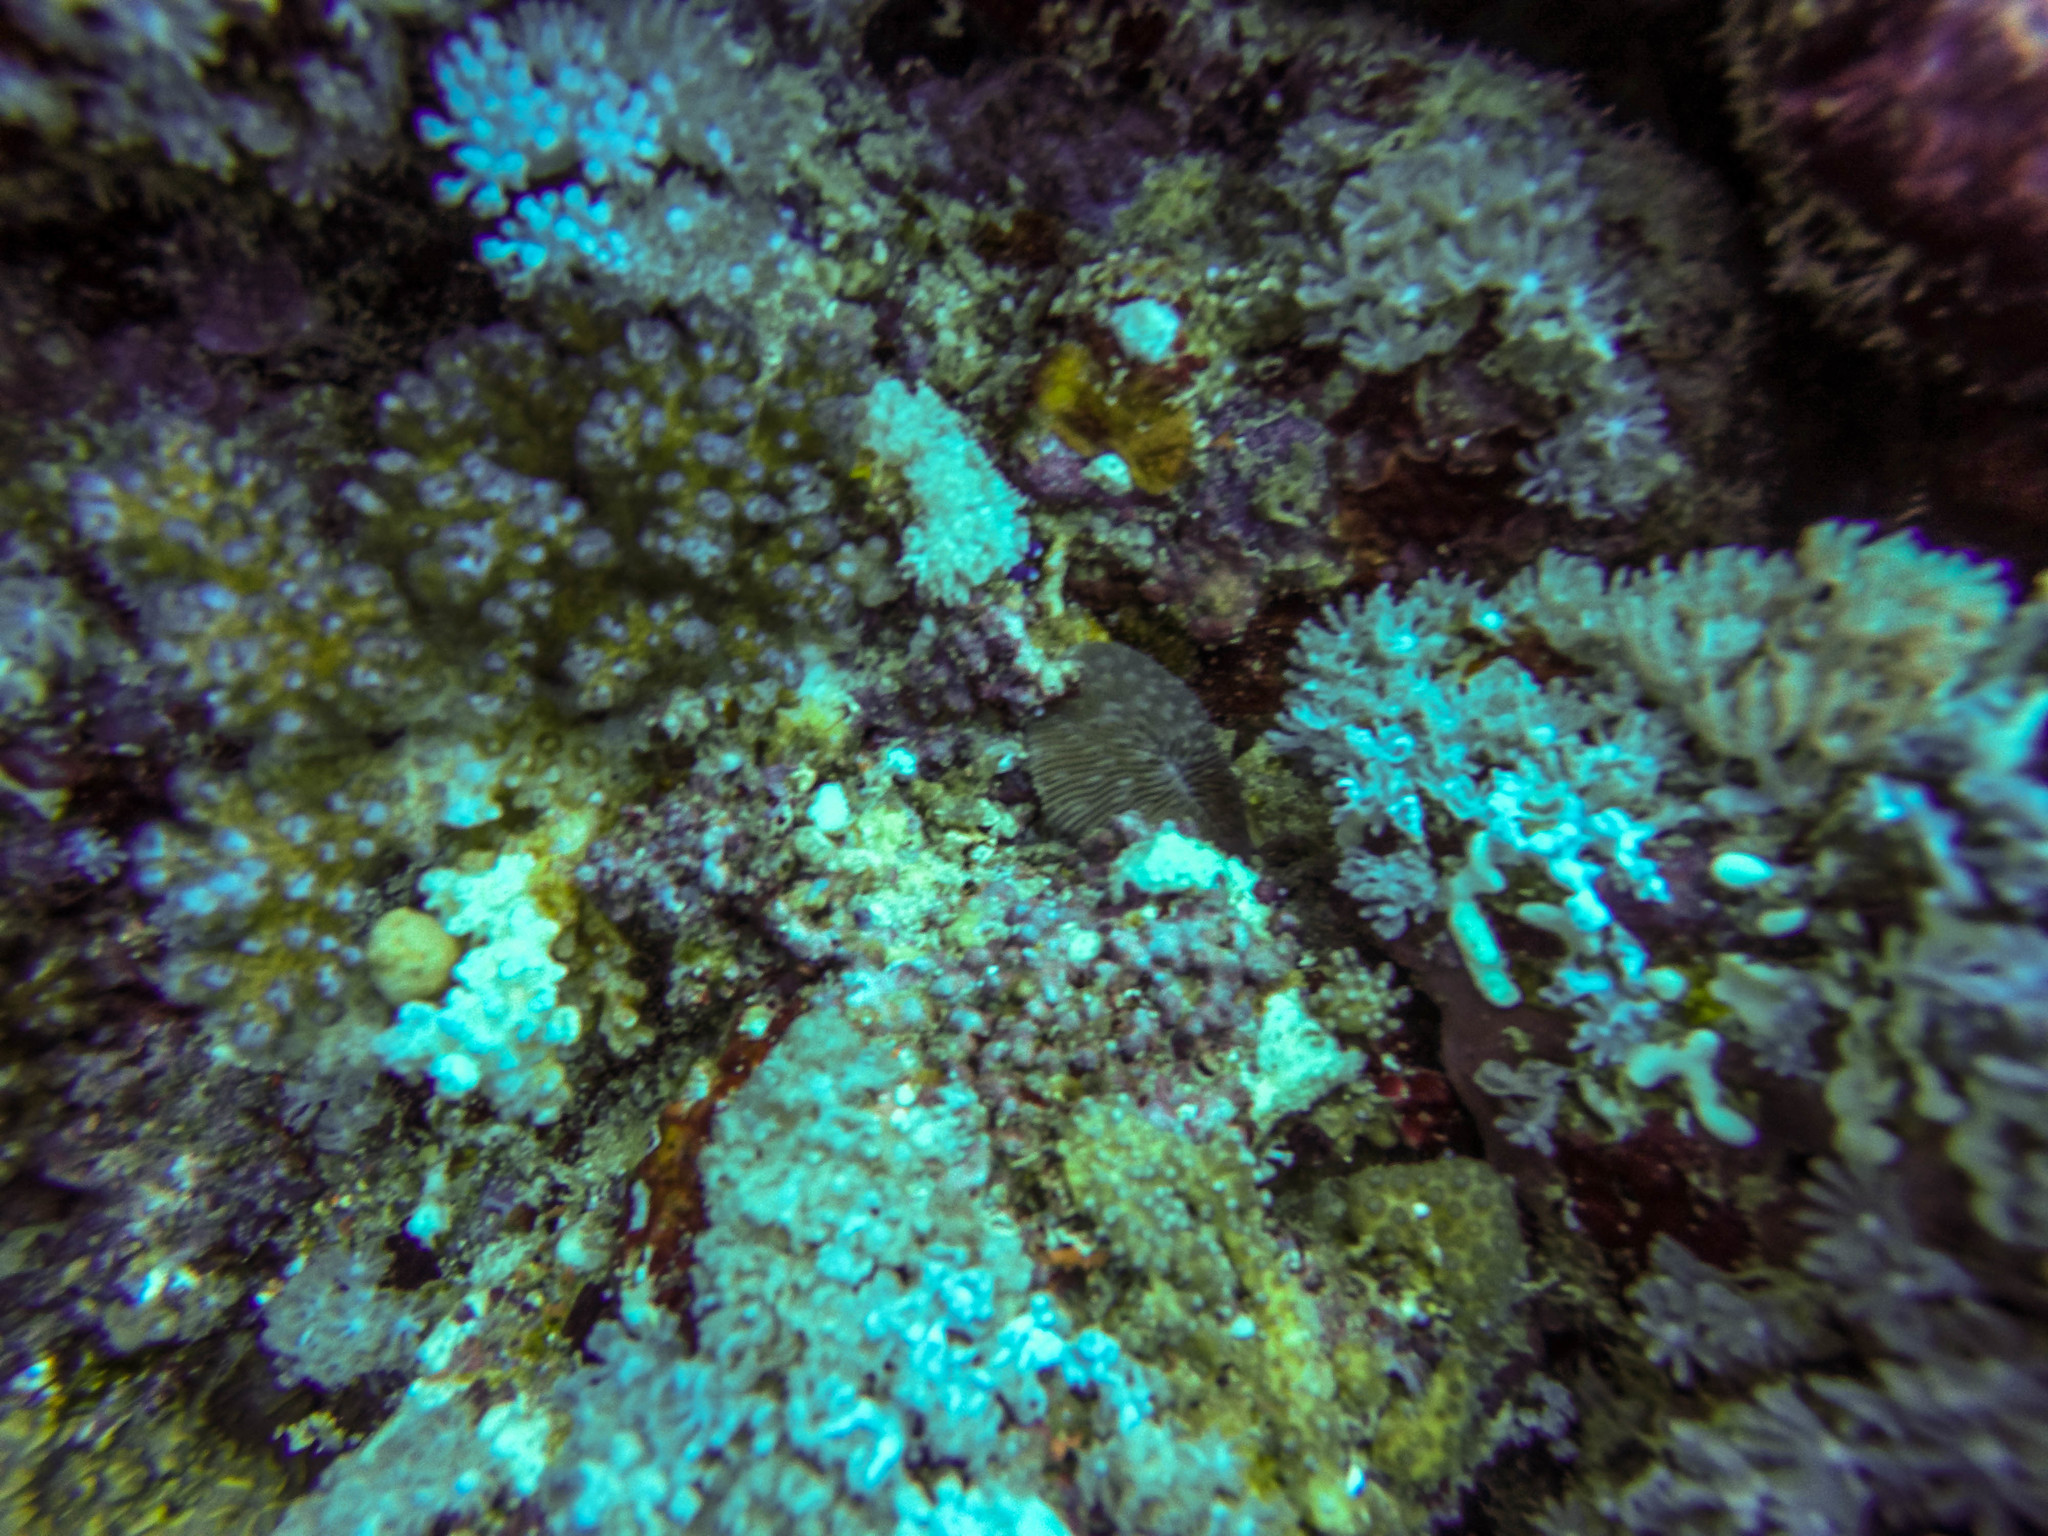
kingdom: Animalia
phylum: Cnidaria
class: Anthozoa
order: Scleractinia
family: Fungiidae
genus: Lobactis
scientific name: Lobactis
